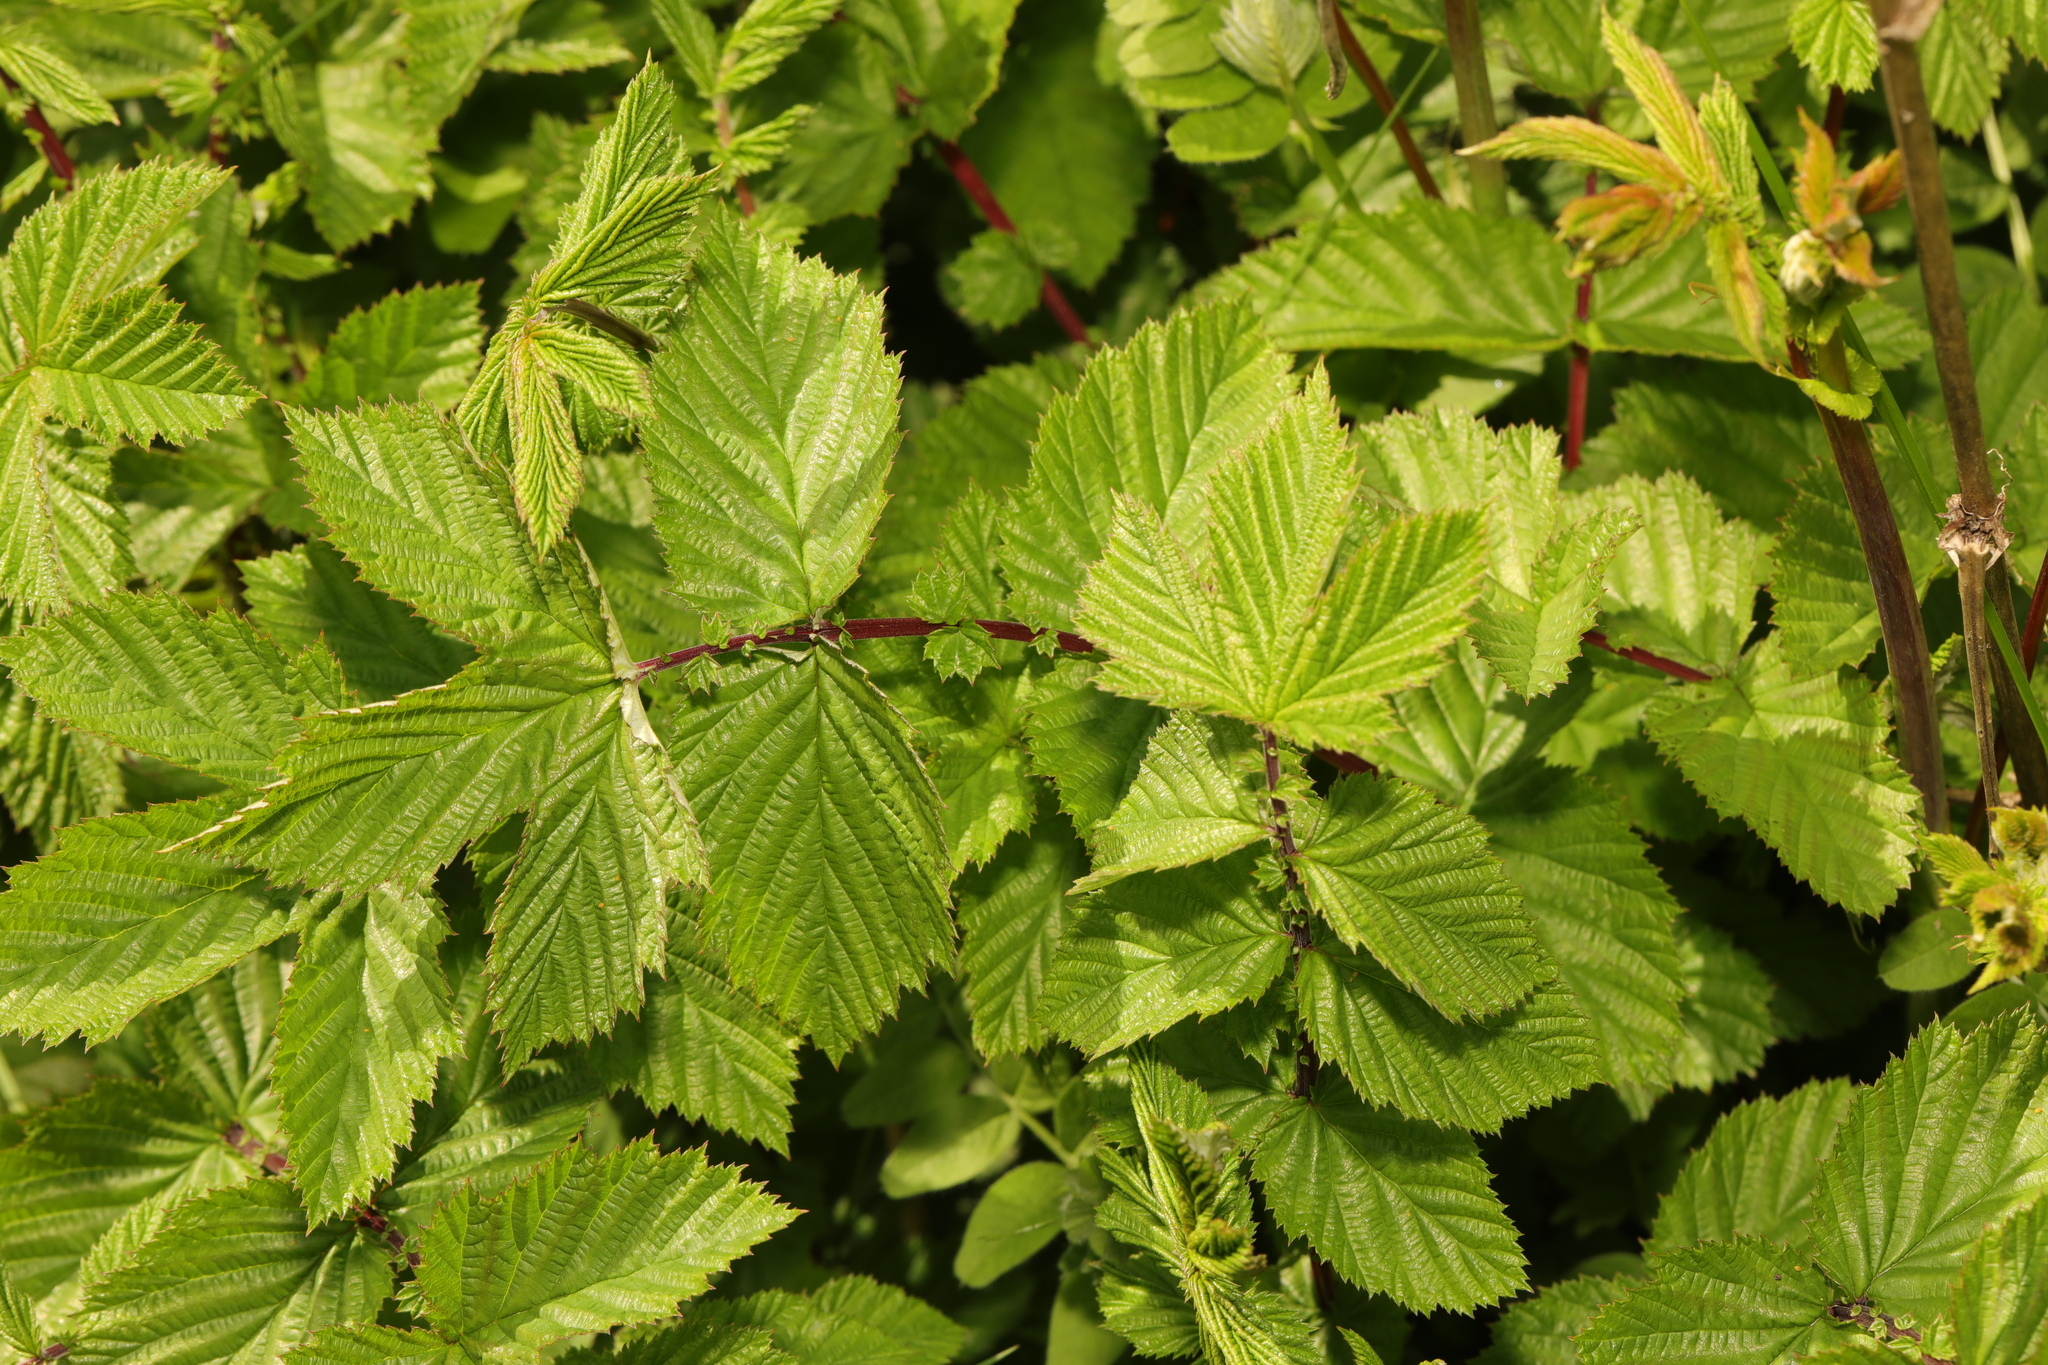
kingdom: Plantae
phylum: Tracheophyta
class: Magnoliopsida
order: Rosales
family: Rosaceae
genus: Filipendula
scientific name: Filipendula ulmaria
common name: Meadowsweet
